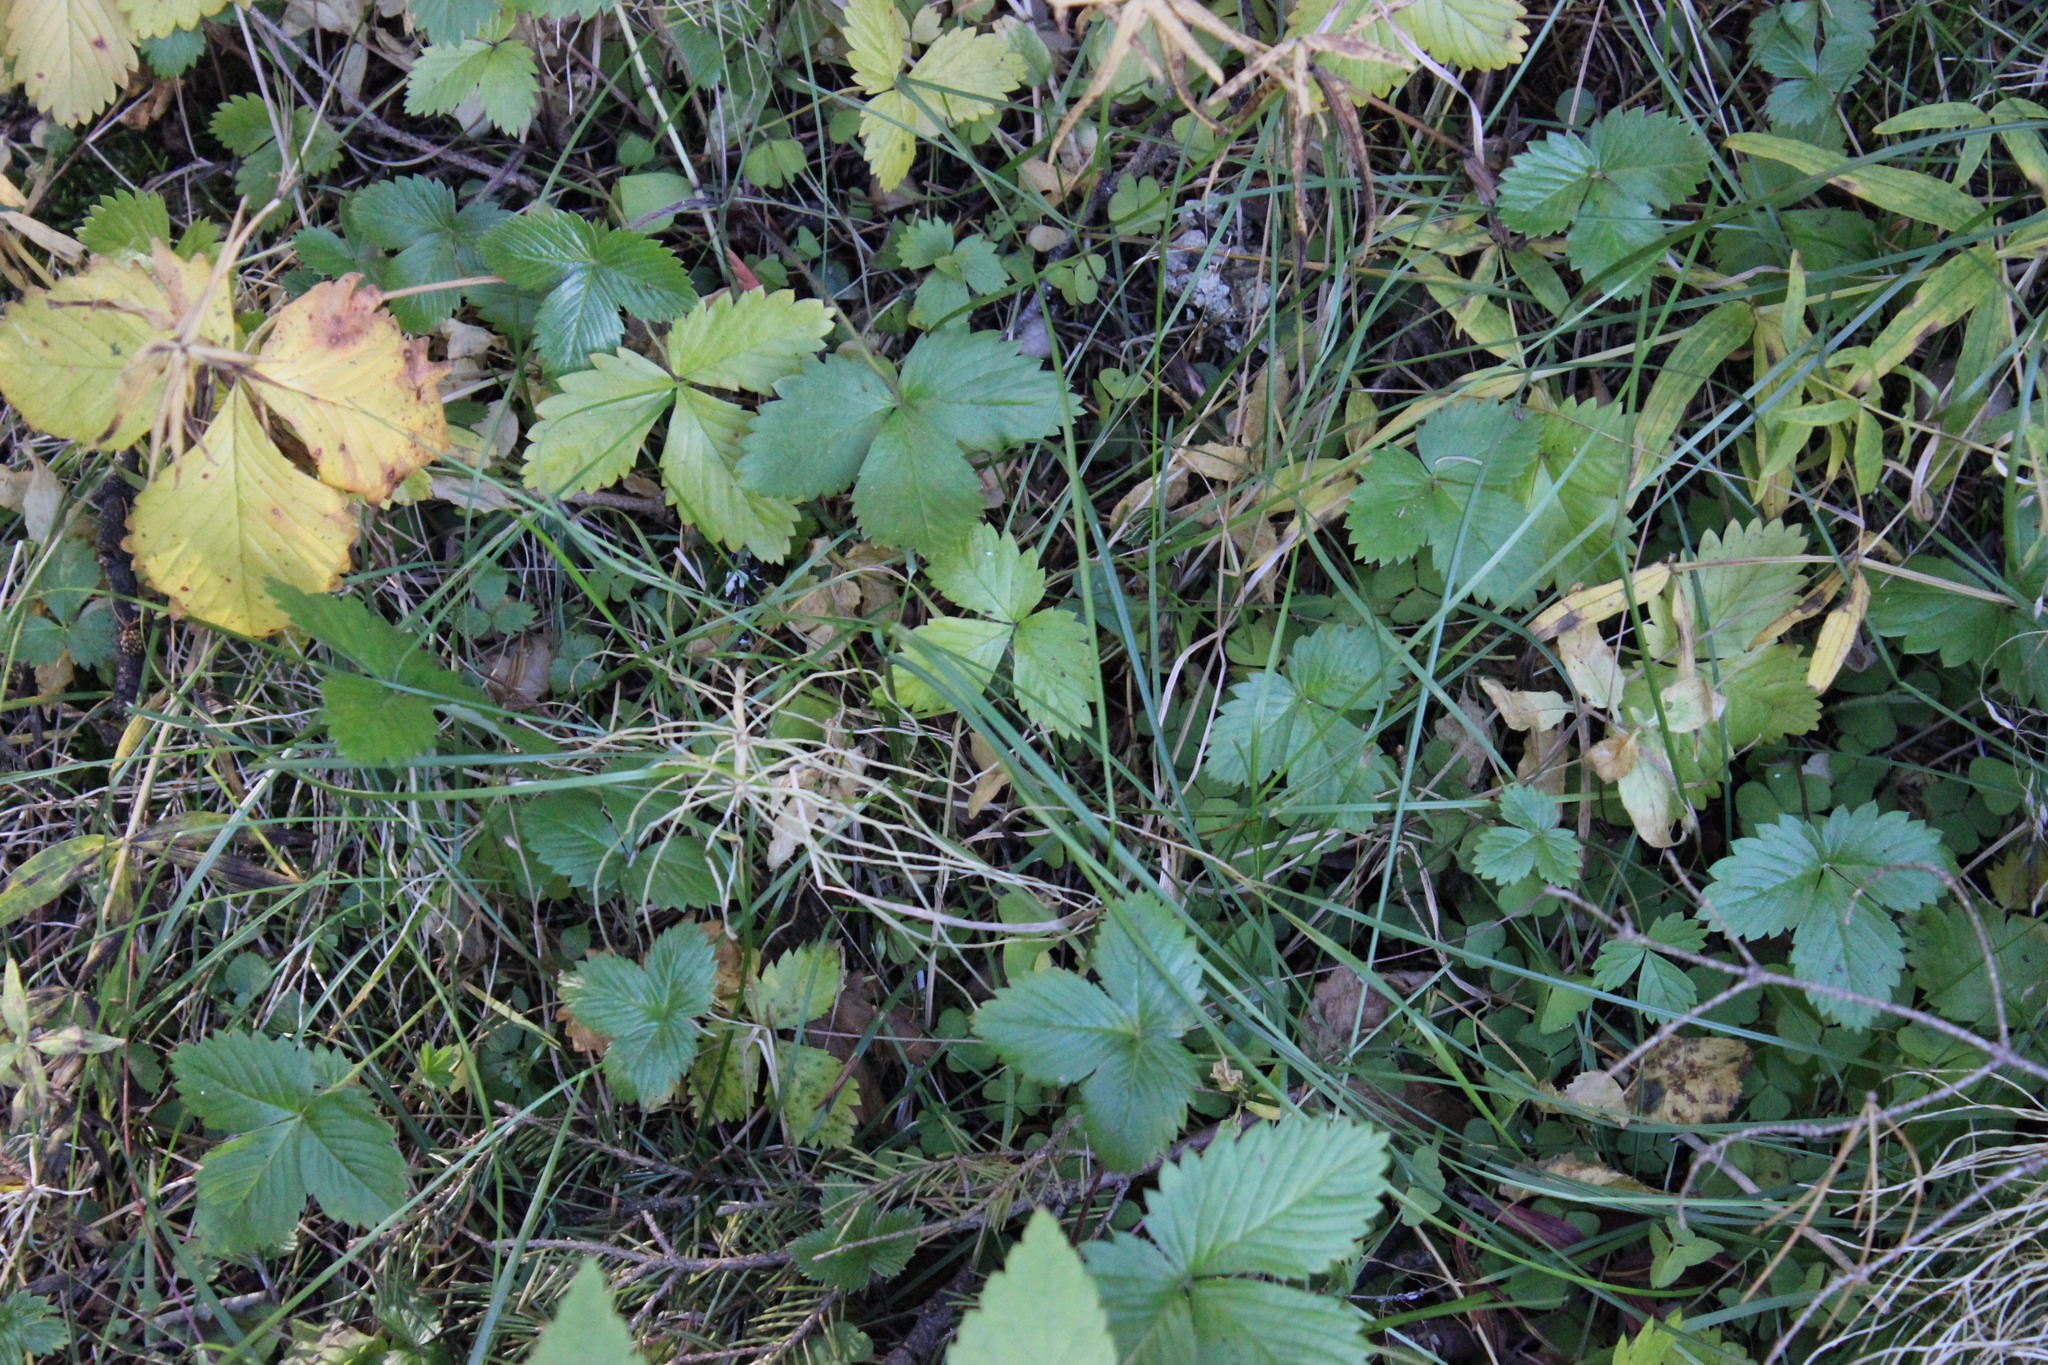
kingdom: Plantae
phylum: Tracheophyta
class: Magnoliopsida
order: Rosales
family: Rosaceae
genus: Fragaria
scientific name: Fragaria vesca
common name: Wild strawberry
